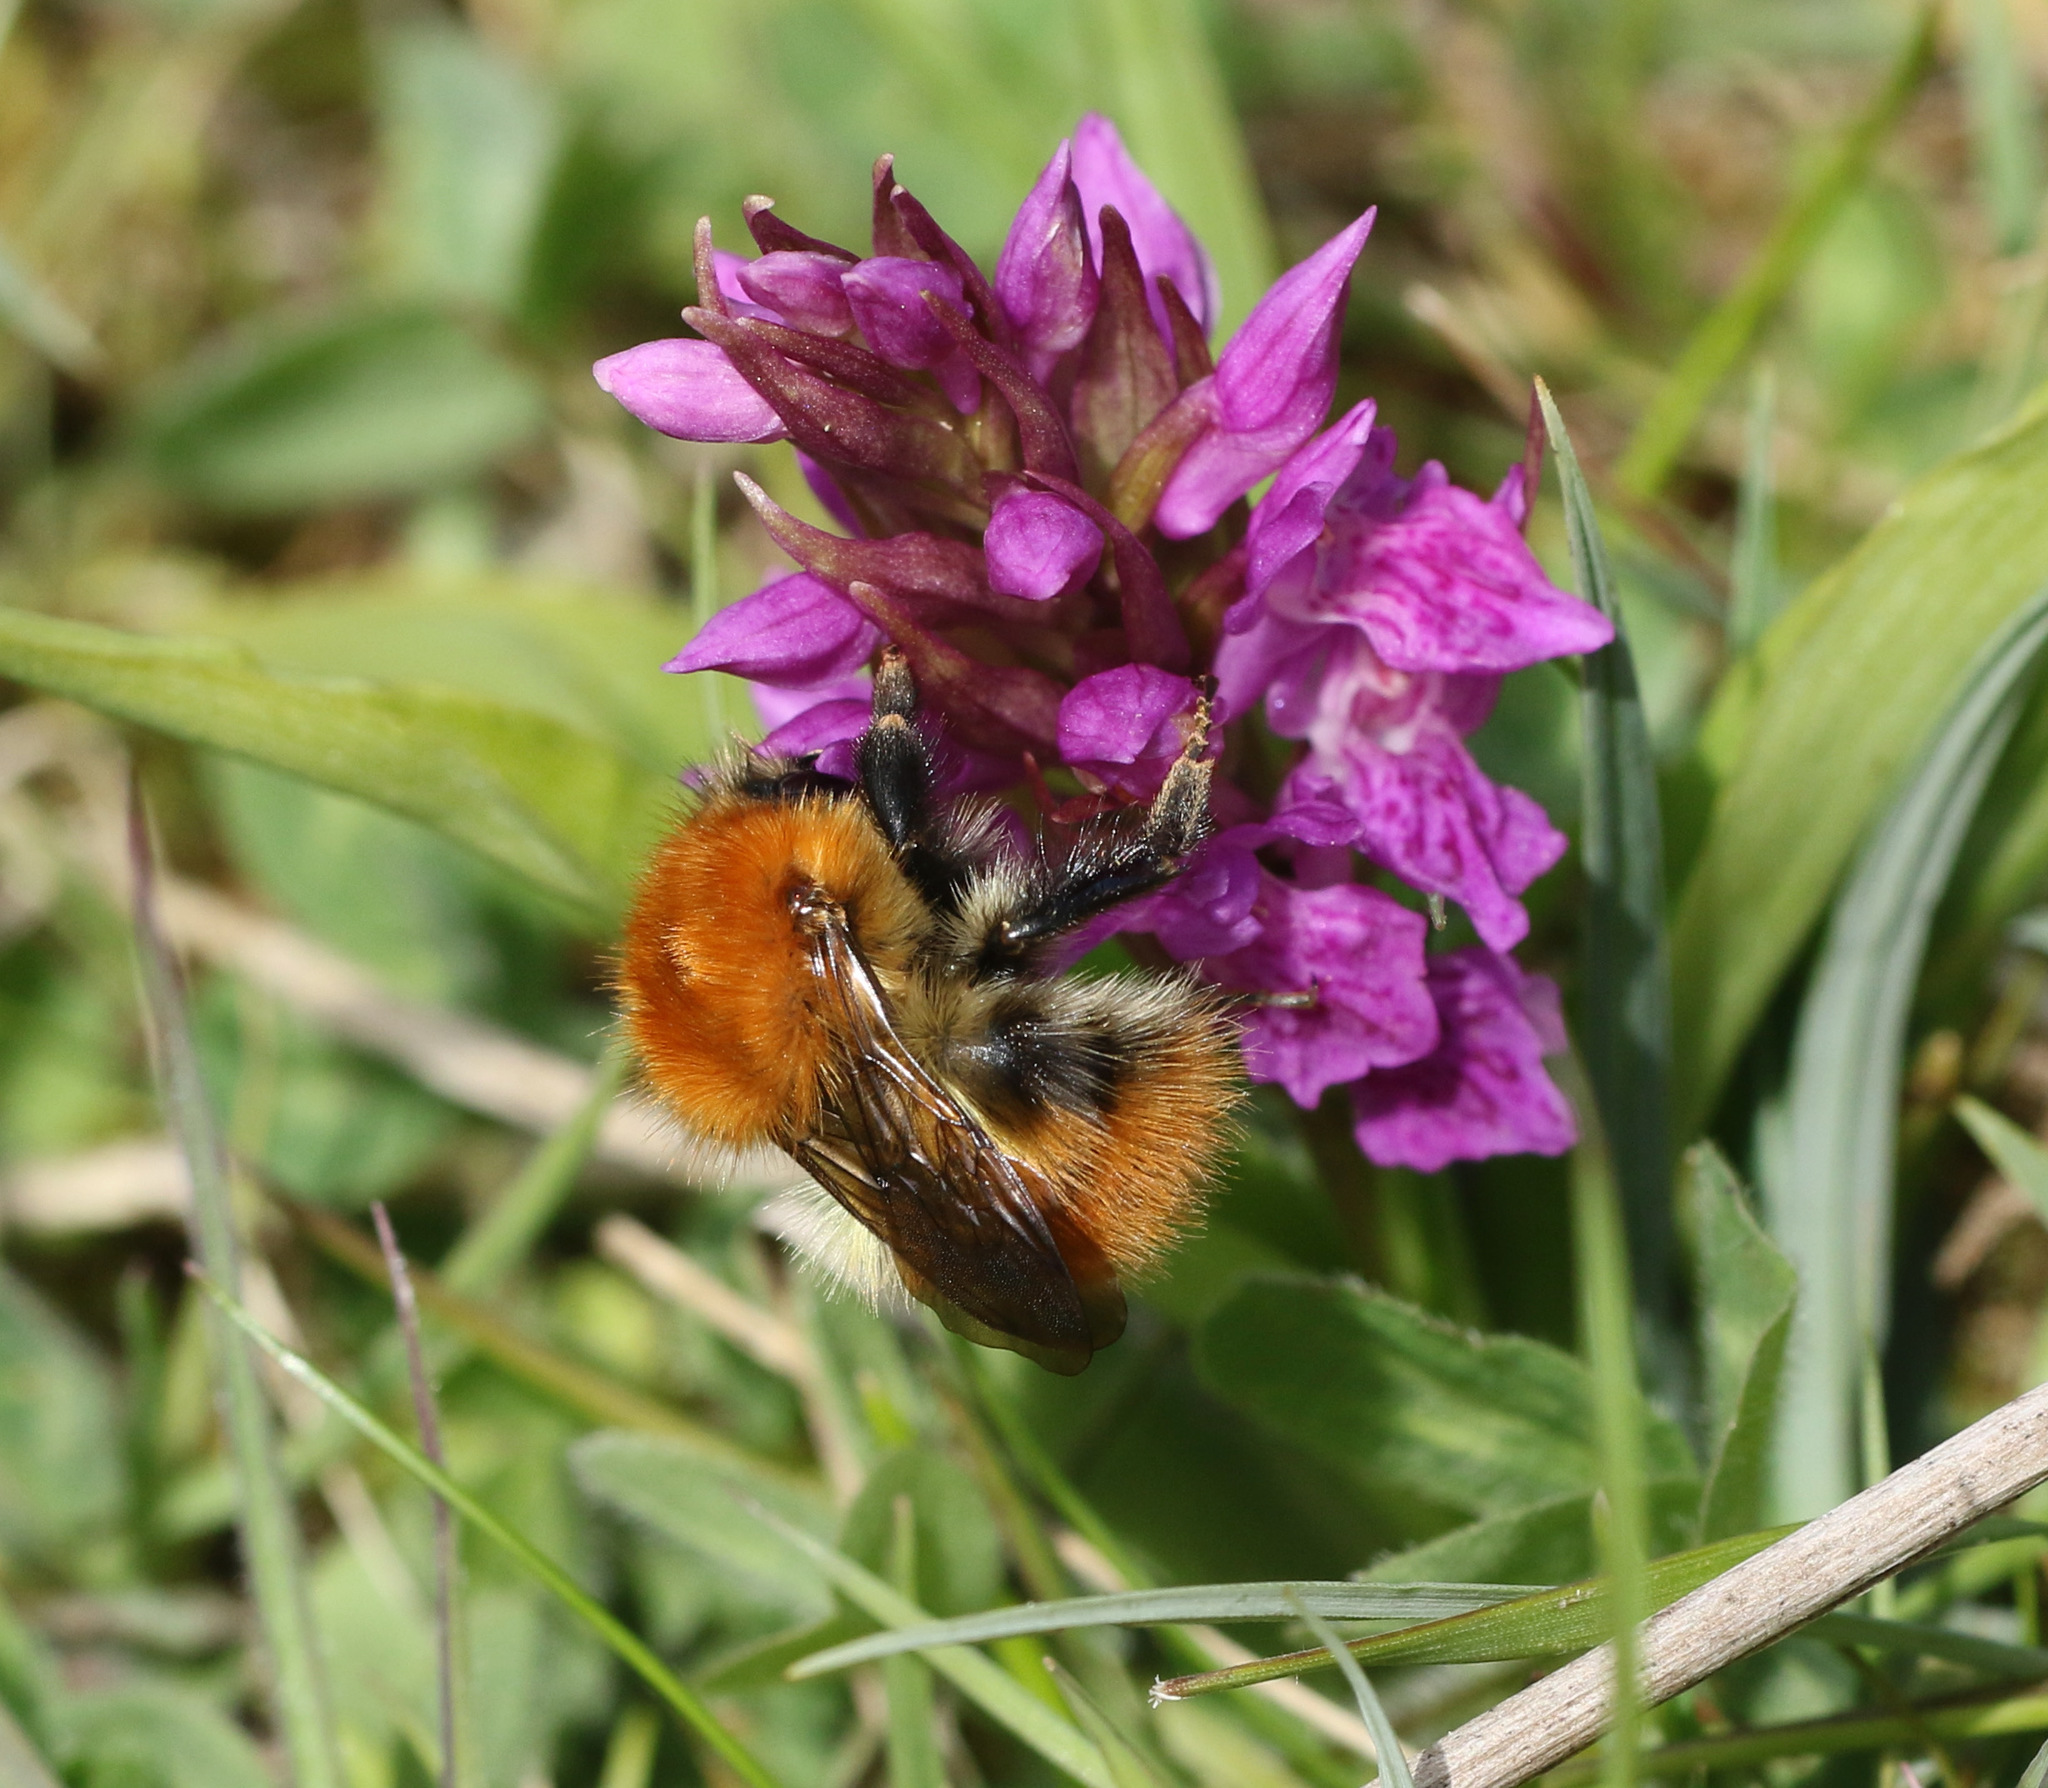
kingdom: Animalia
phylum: Arthropoda
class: Insecta
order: Hymenoptera
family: Apidae
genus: Bombus
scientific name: Bombus pascuorum
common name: Common carder bee
